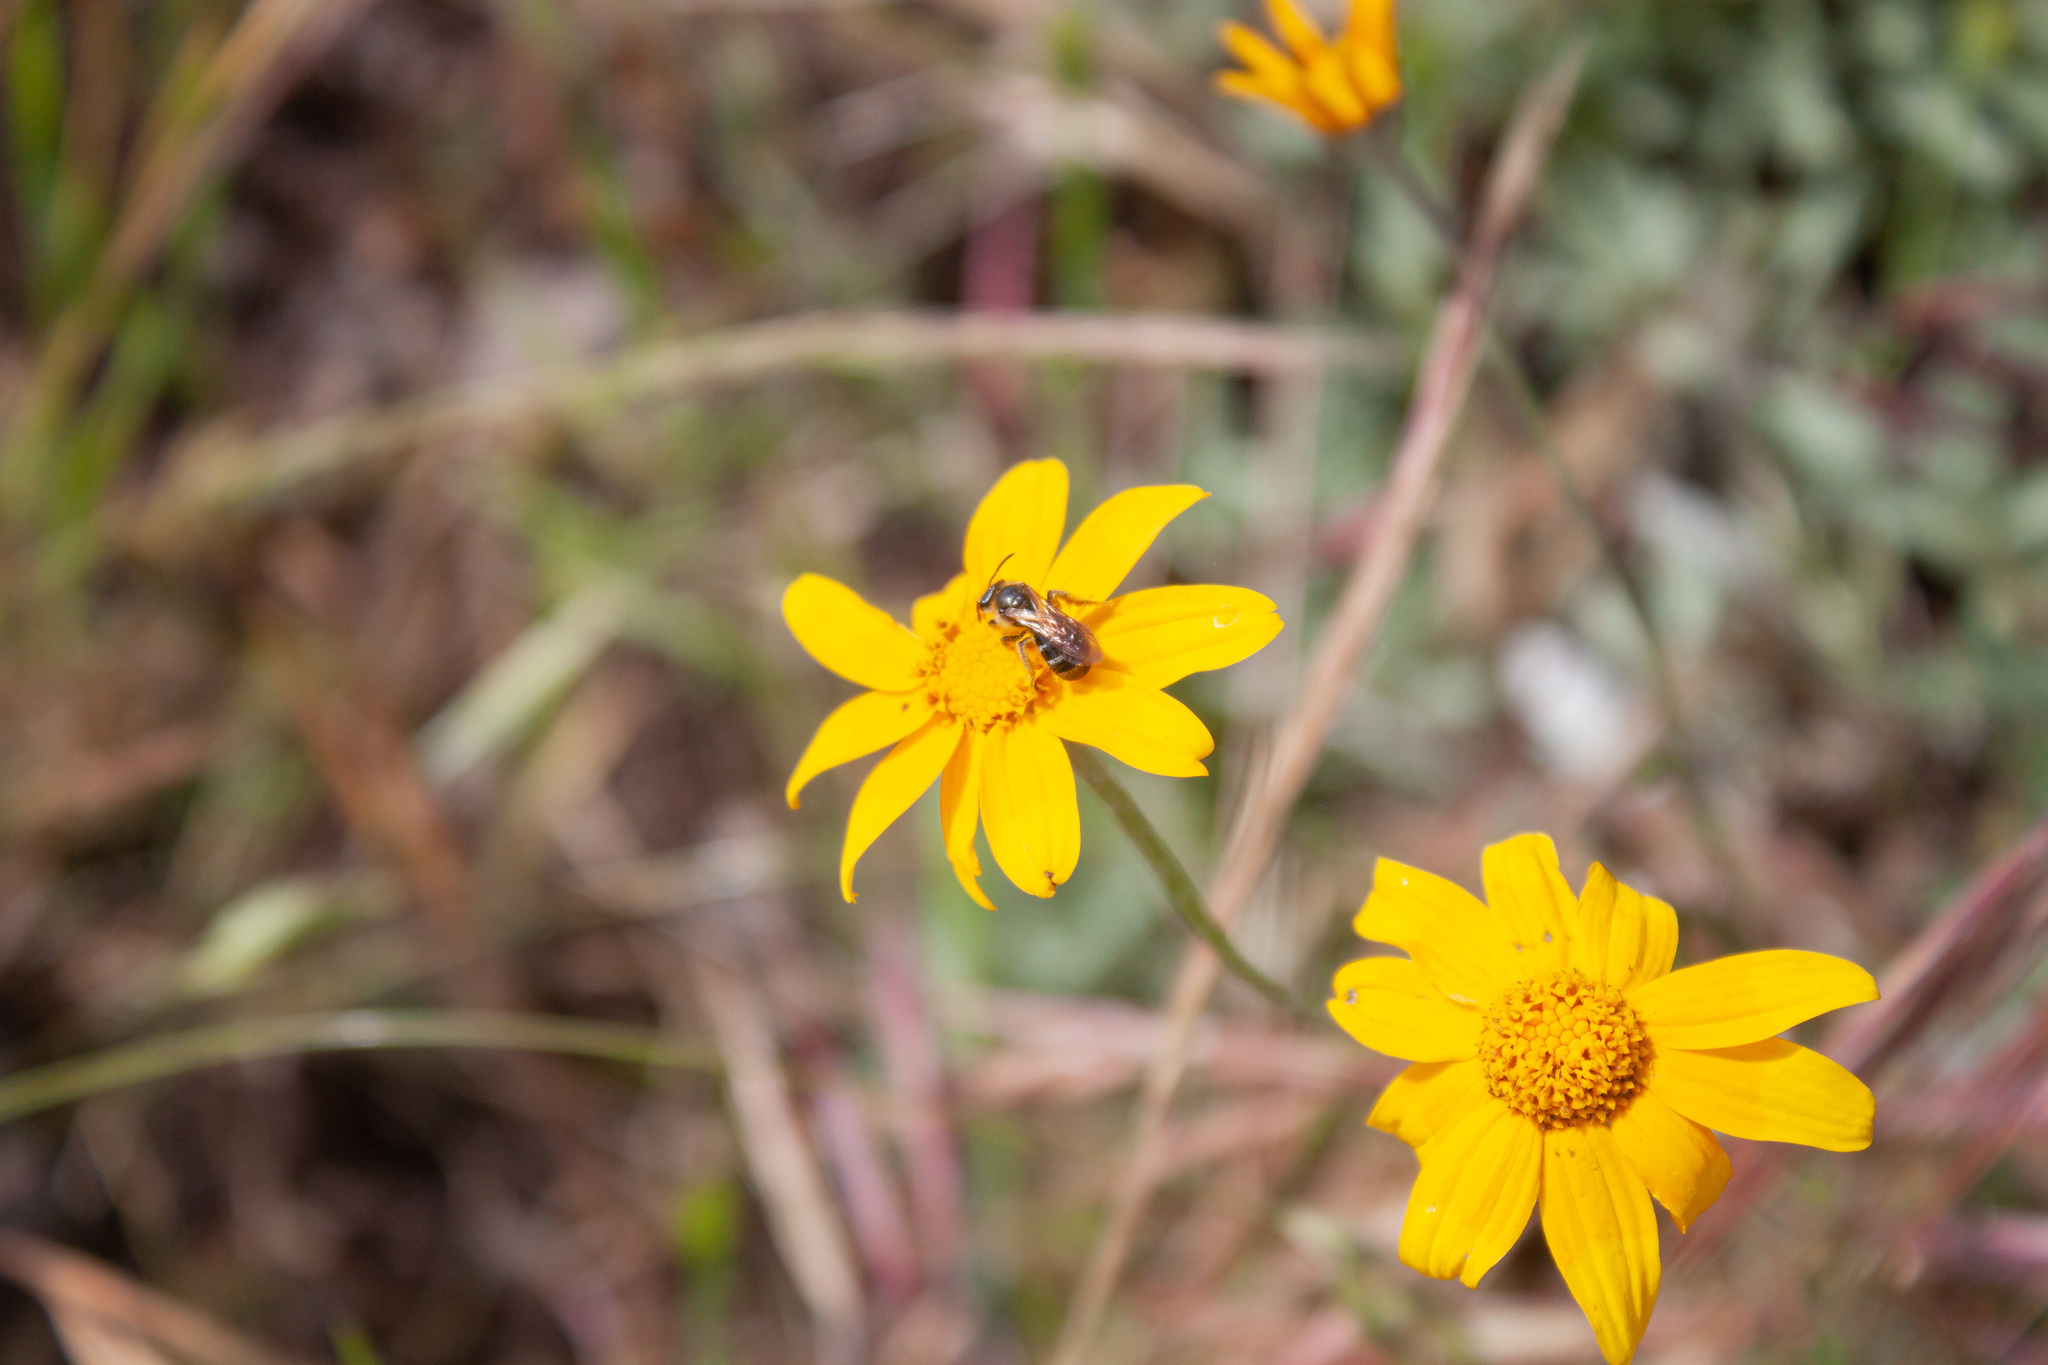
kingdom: Plantae
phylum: Tracheophyta
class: Magnoliopsida
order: Asterales
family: Asteraceae
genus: Eriophyllum
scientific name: Eriophyllum lanatum
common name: Common woolly-sunflower
